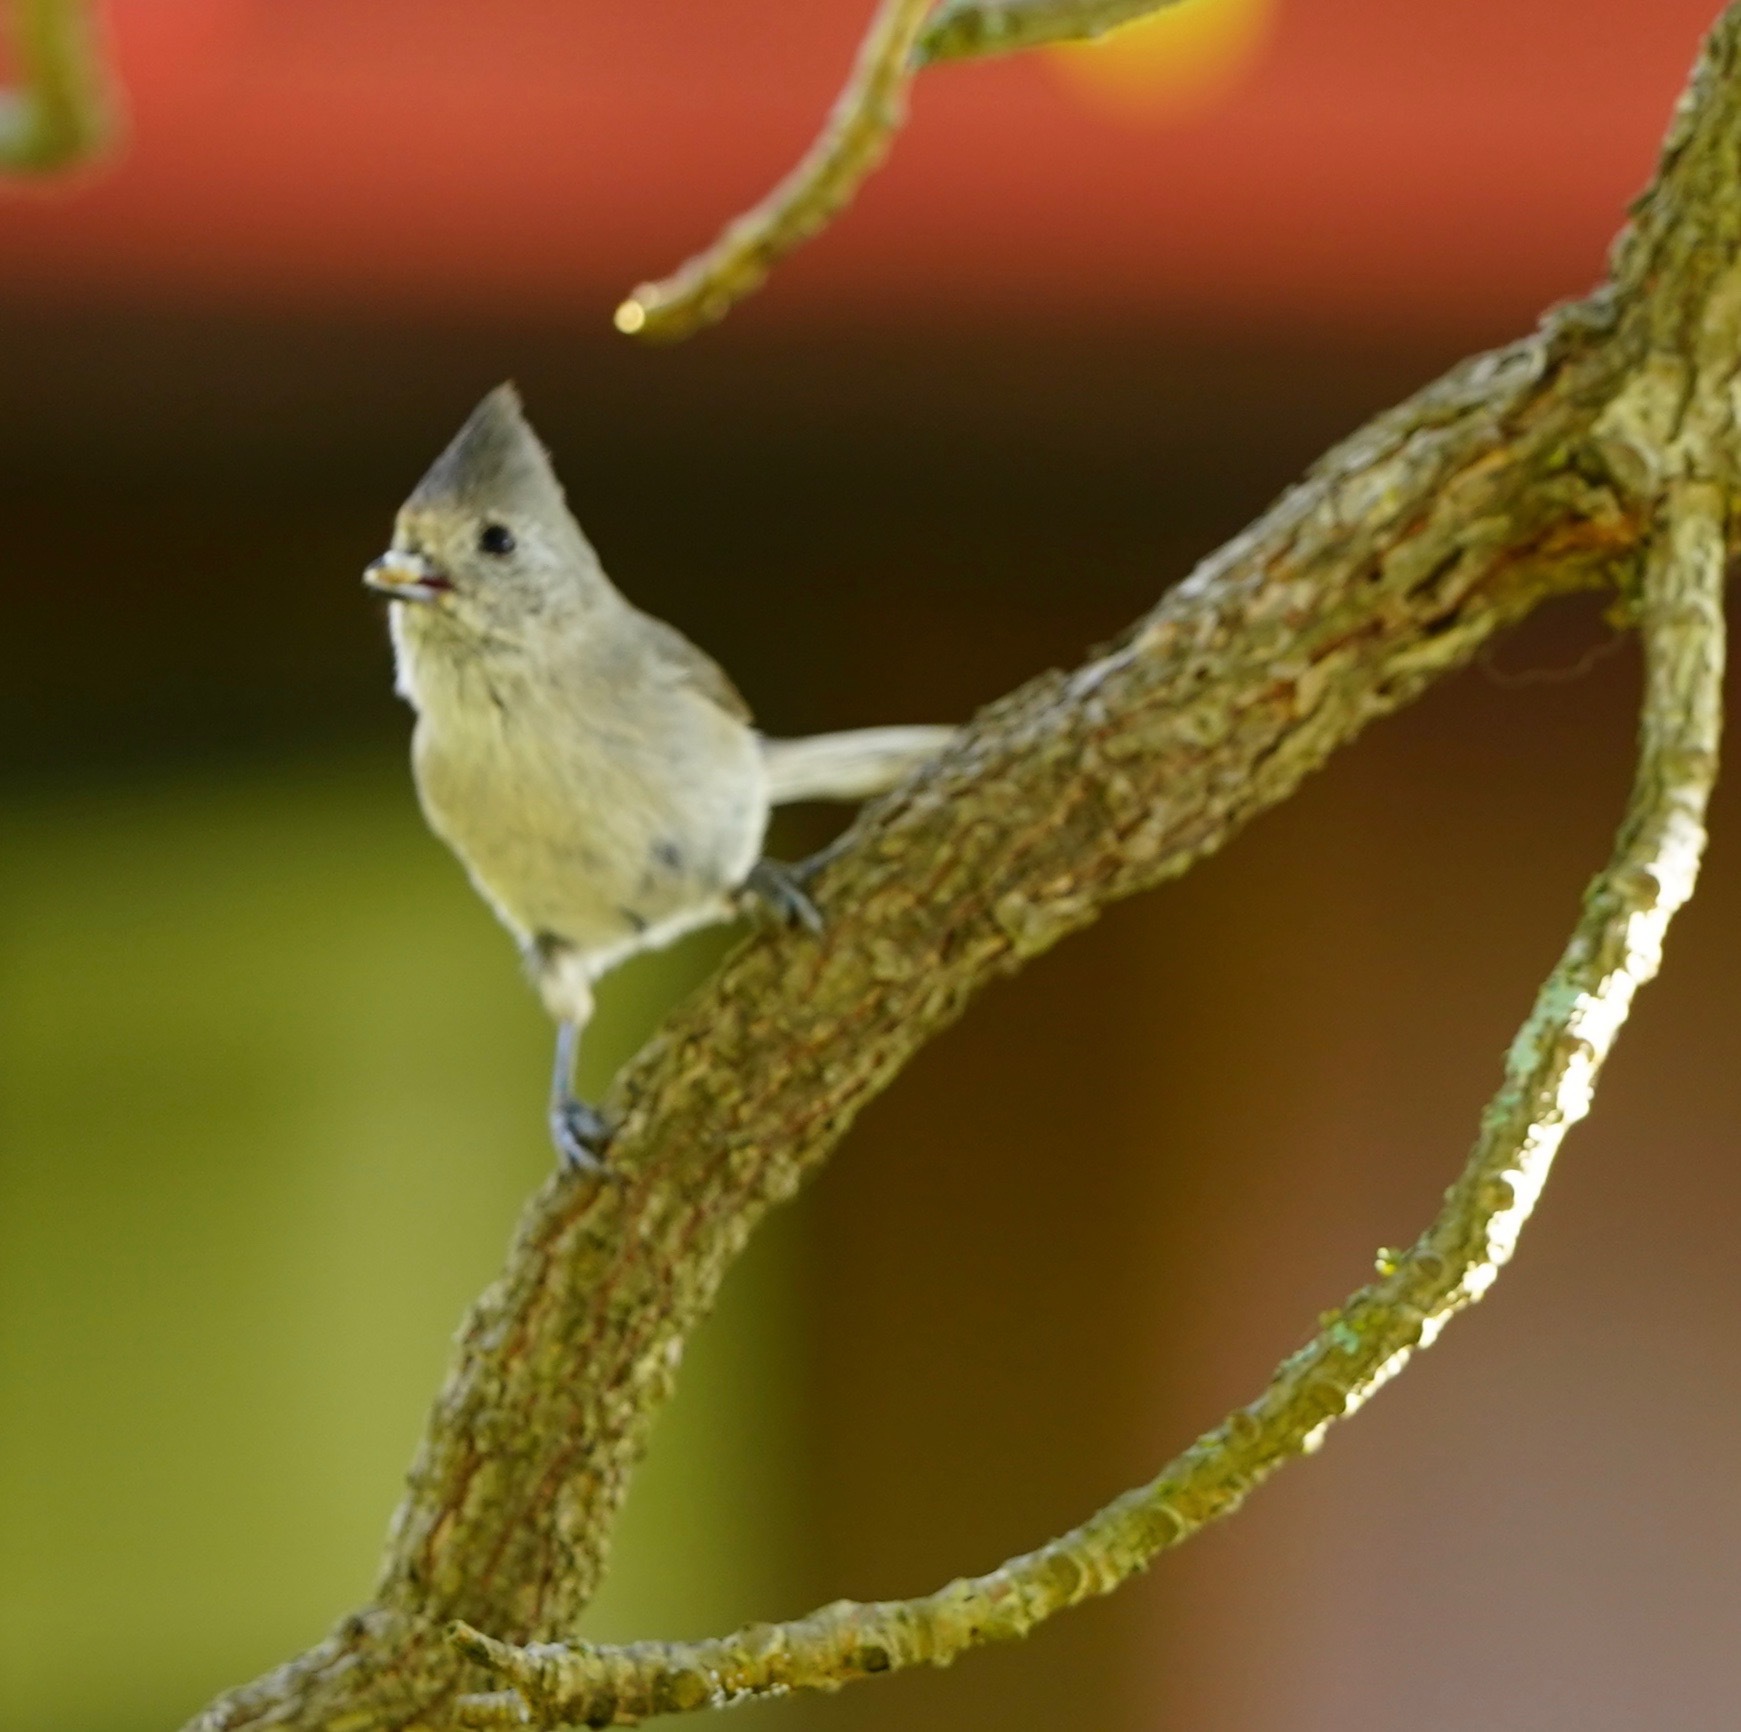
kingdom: Animalia
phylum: Chordata
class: Aves
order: Passeriformes
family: Paridae
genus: Baeolophus
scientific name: Baeolophus inornatus
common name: Oak titmouse
